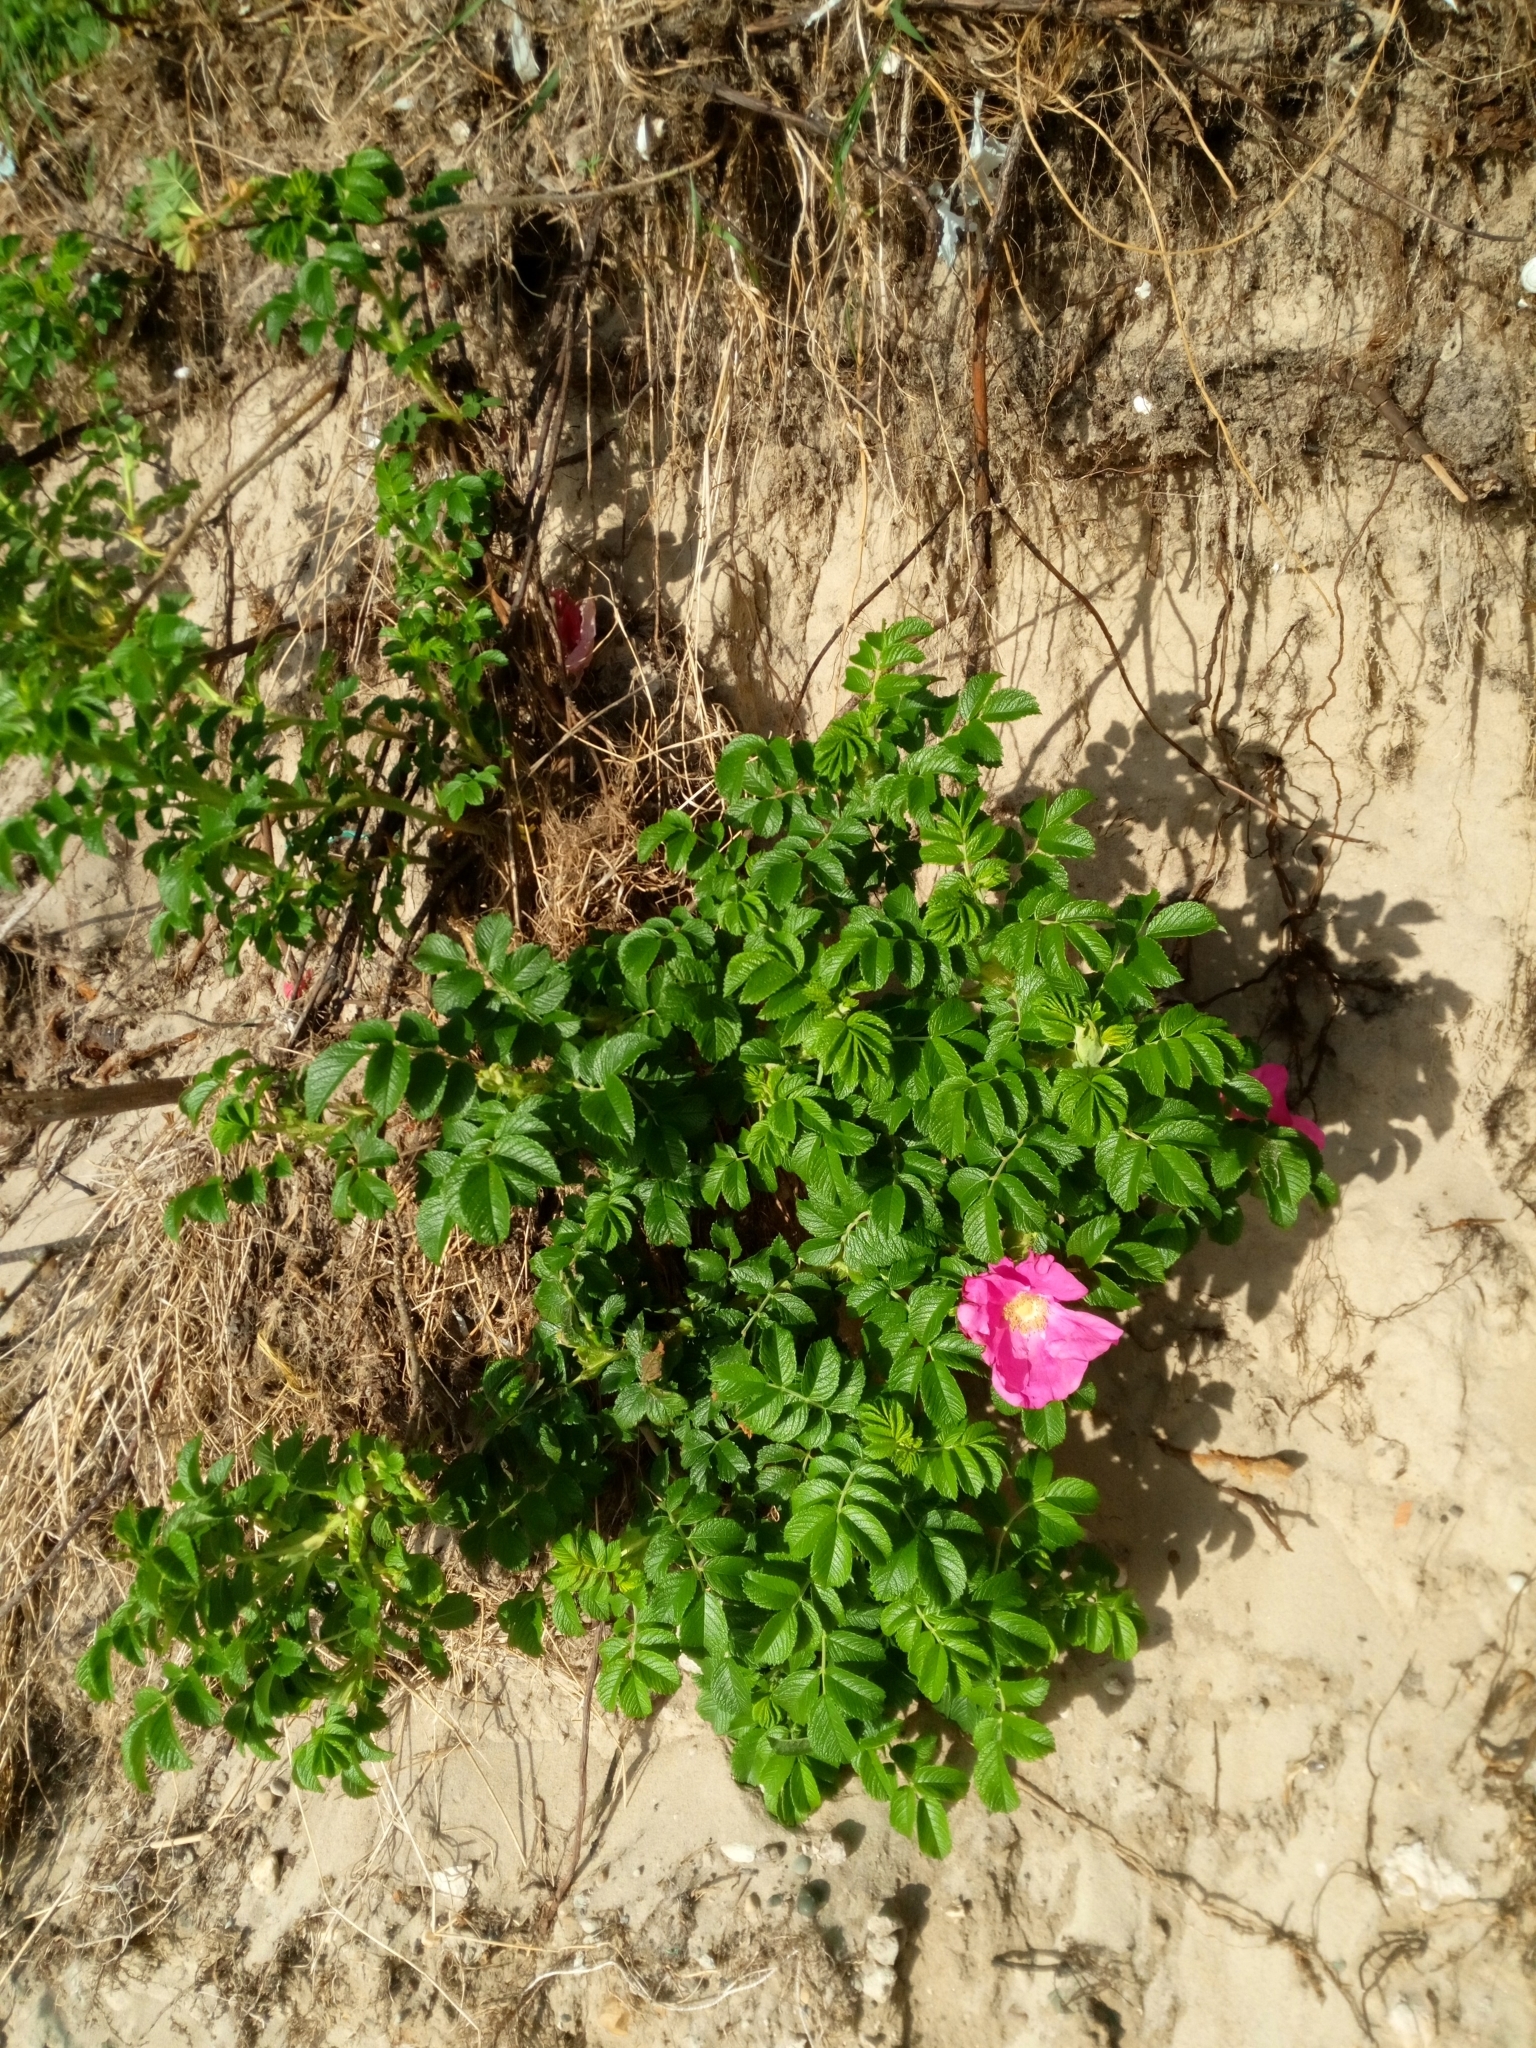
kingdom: Plantae
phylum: Tracheophyta
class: Magnoliopsida
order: Rosales
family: Rosaceae
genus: Rosa
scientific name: Rosa rugosa
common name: Japanese rose
